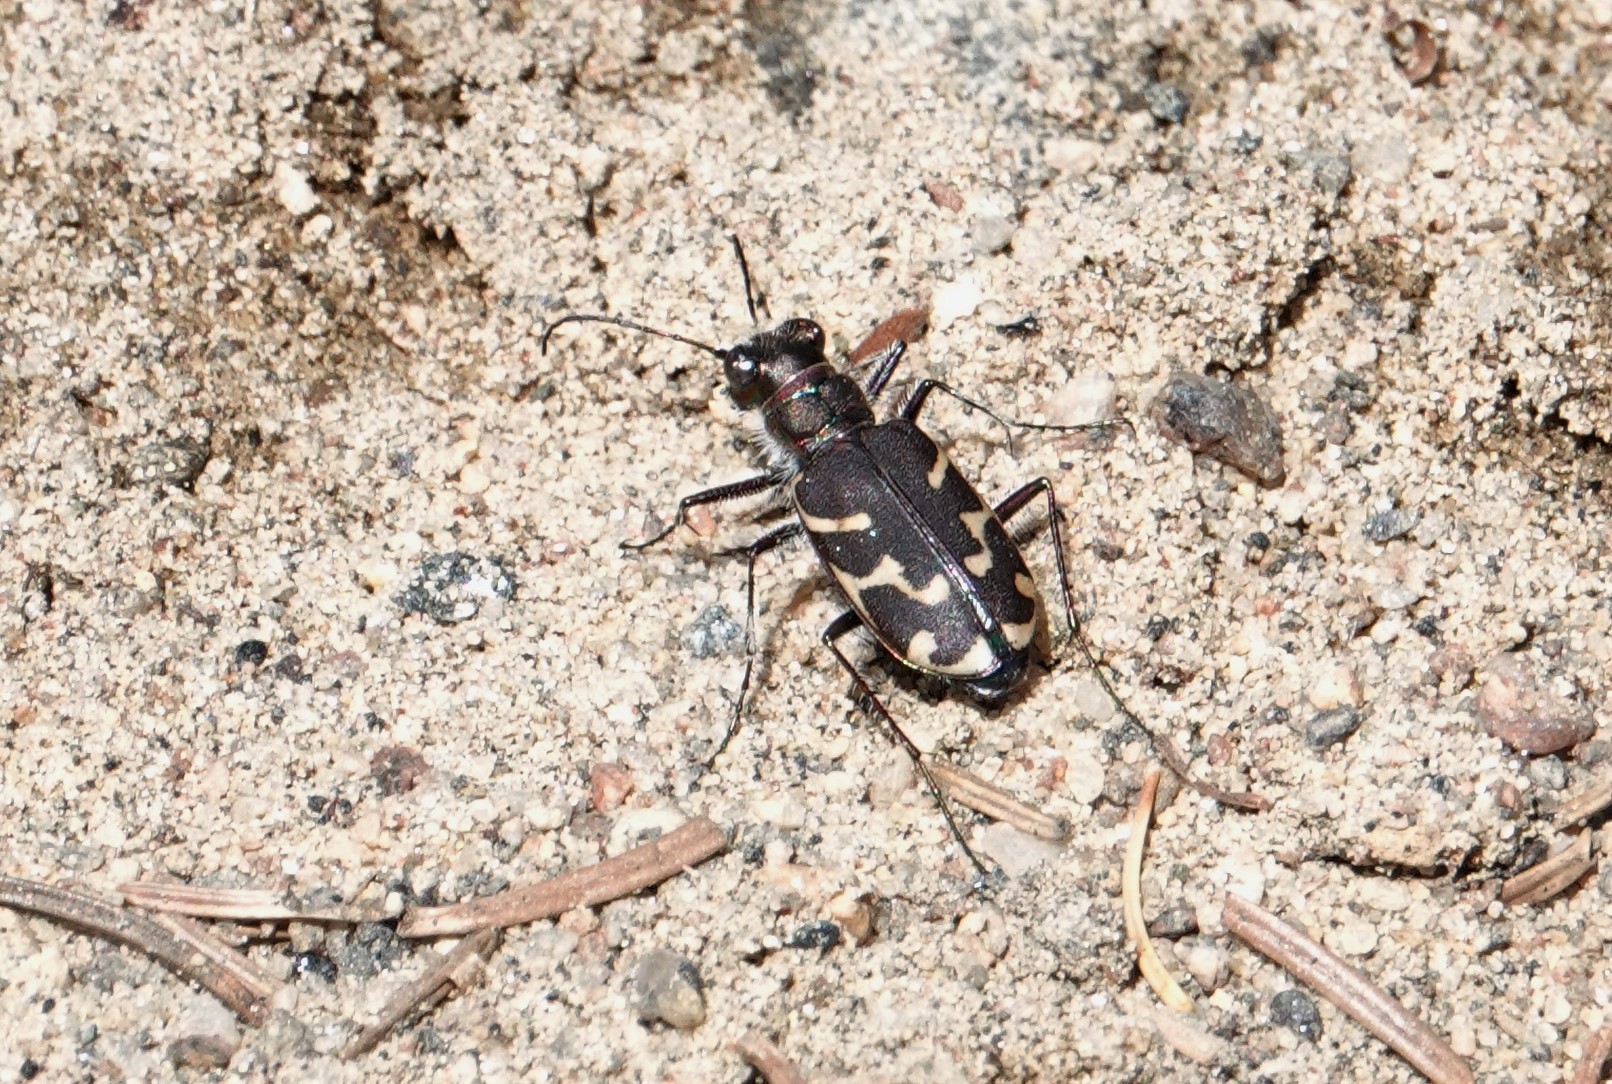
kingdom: Animalia
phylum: Arthropoda
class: Insecta
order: Coleoptera
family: Carabidae
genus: Cicindela
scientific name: Cicindela tranquebarica
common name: Oblique-lined tiger beetle
